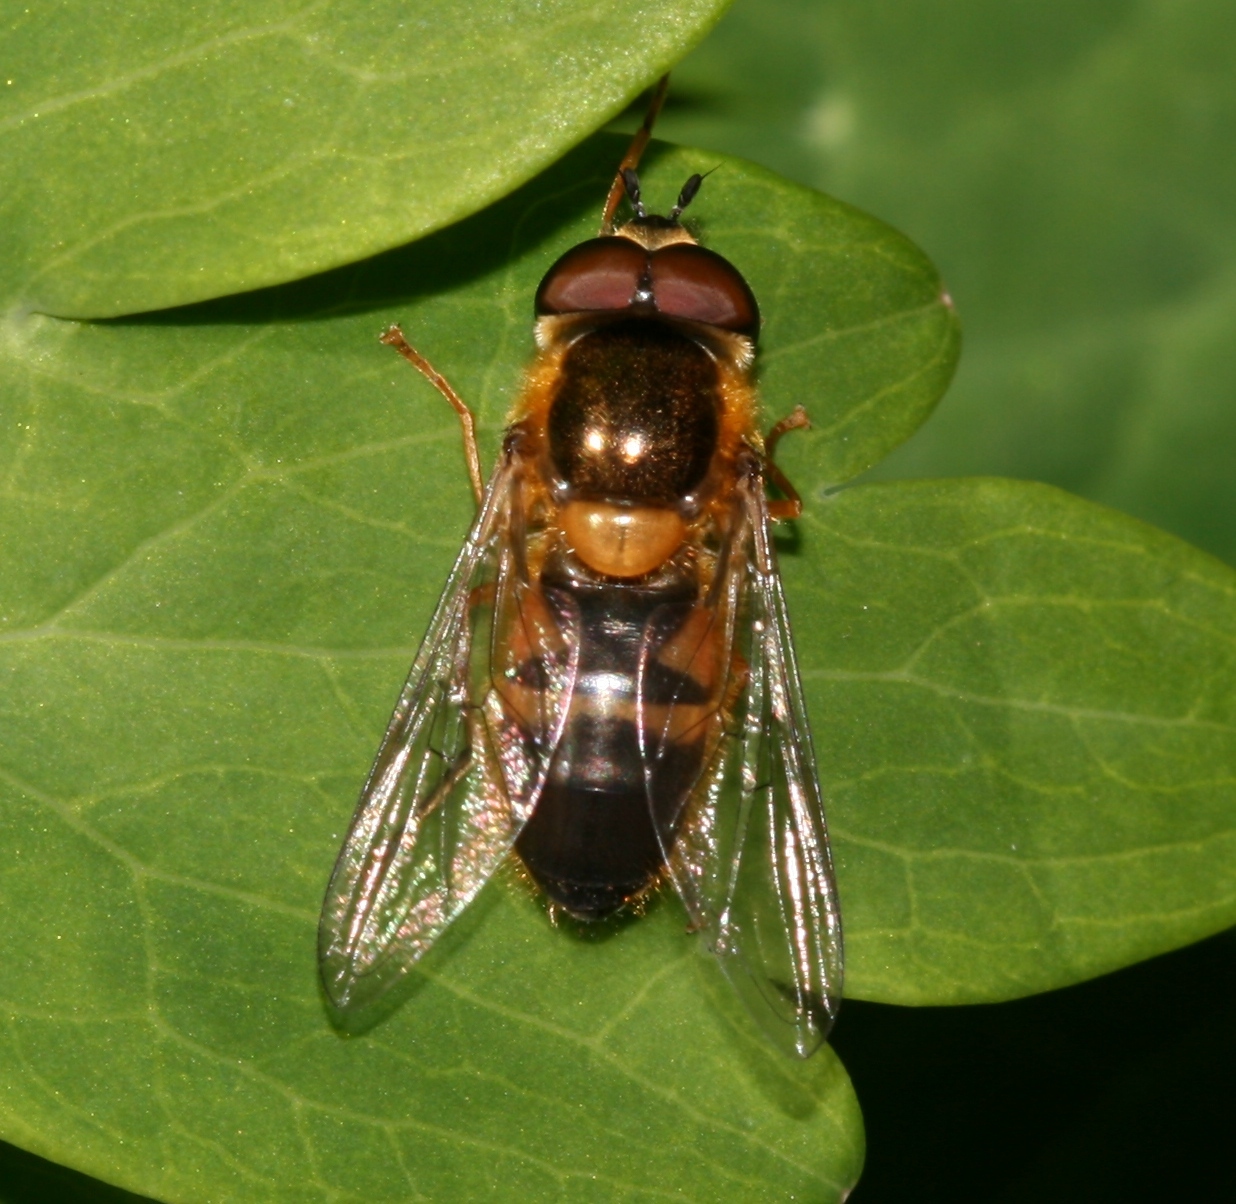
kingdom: Animalia
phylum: Arthropoda
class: Insecta
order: Diptera
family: Syrphidae
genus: Epistrophe
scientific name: Epistrophe eligans
